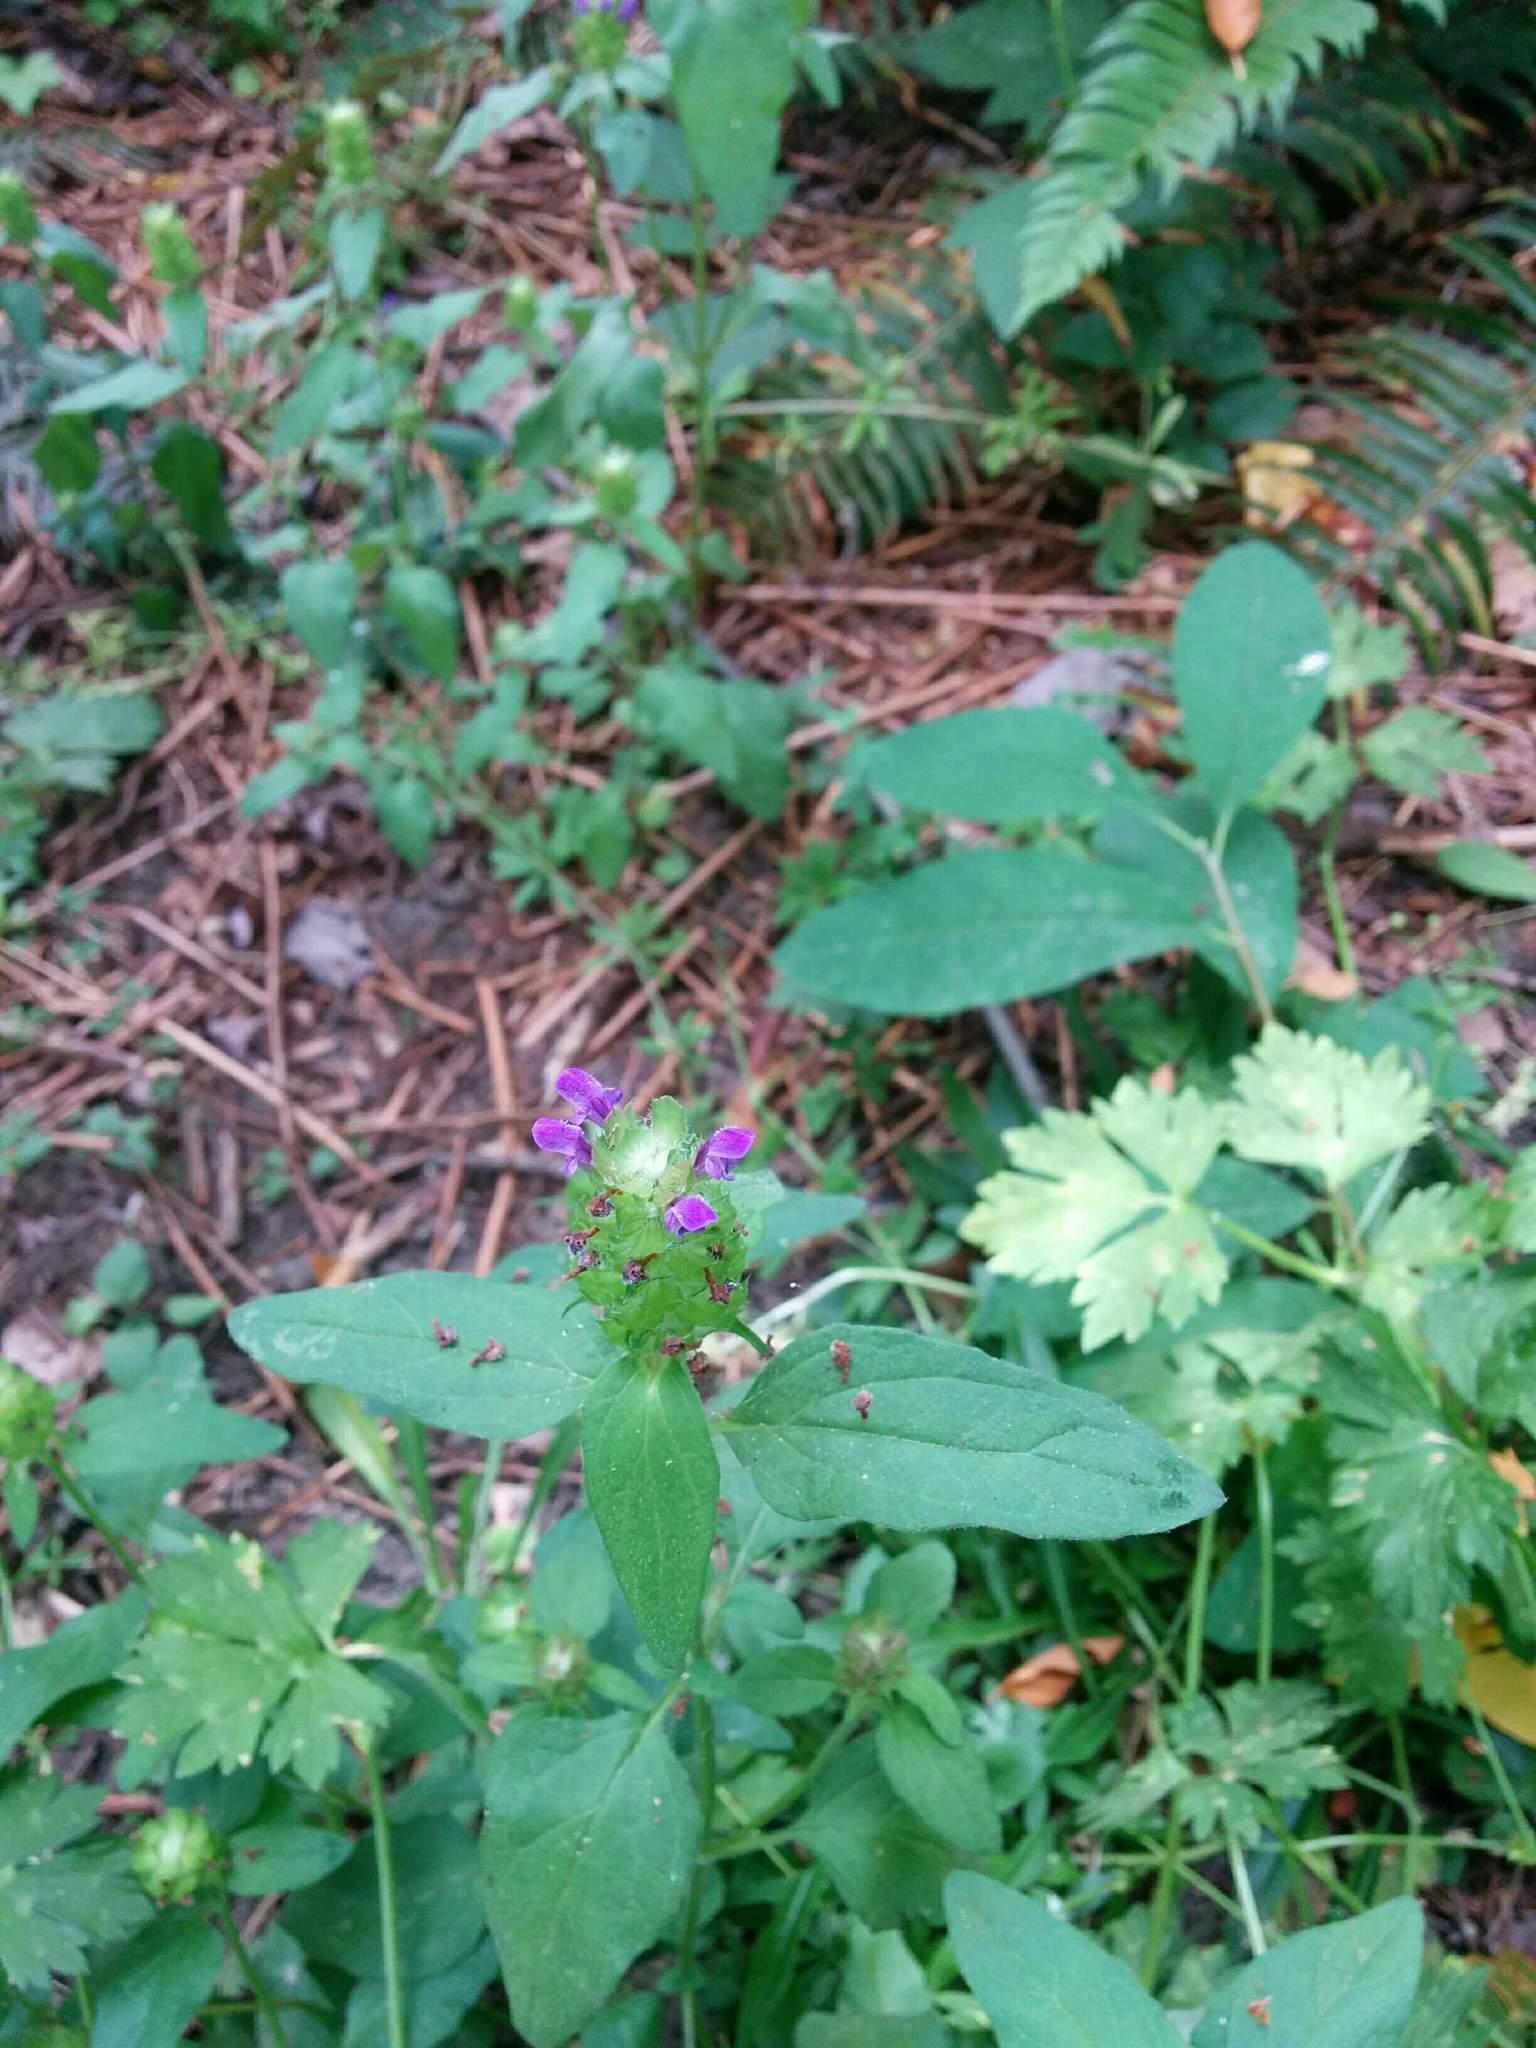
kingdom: Plantae
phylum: Tracheophyta
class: Magnoliopsida
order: Lamiales
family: Lamiaceae
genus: Prunella
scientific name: Prunella vulgaris
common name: Heal-all
